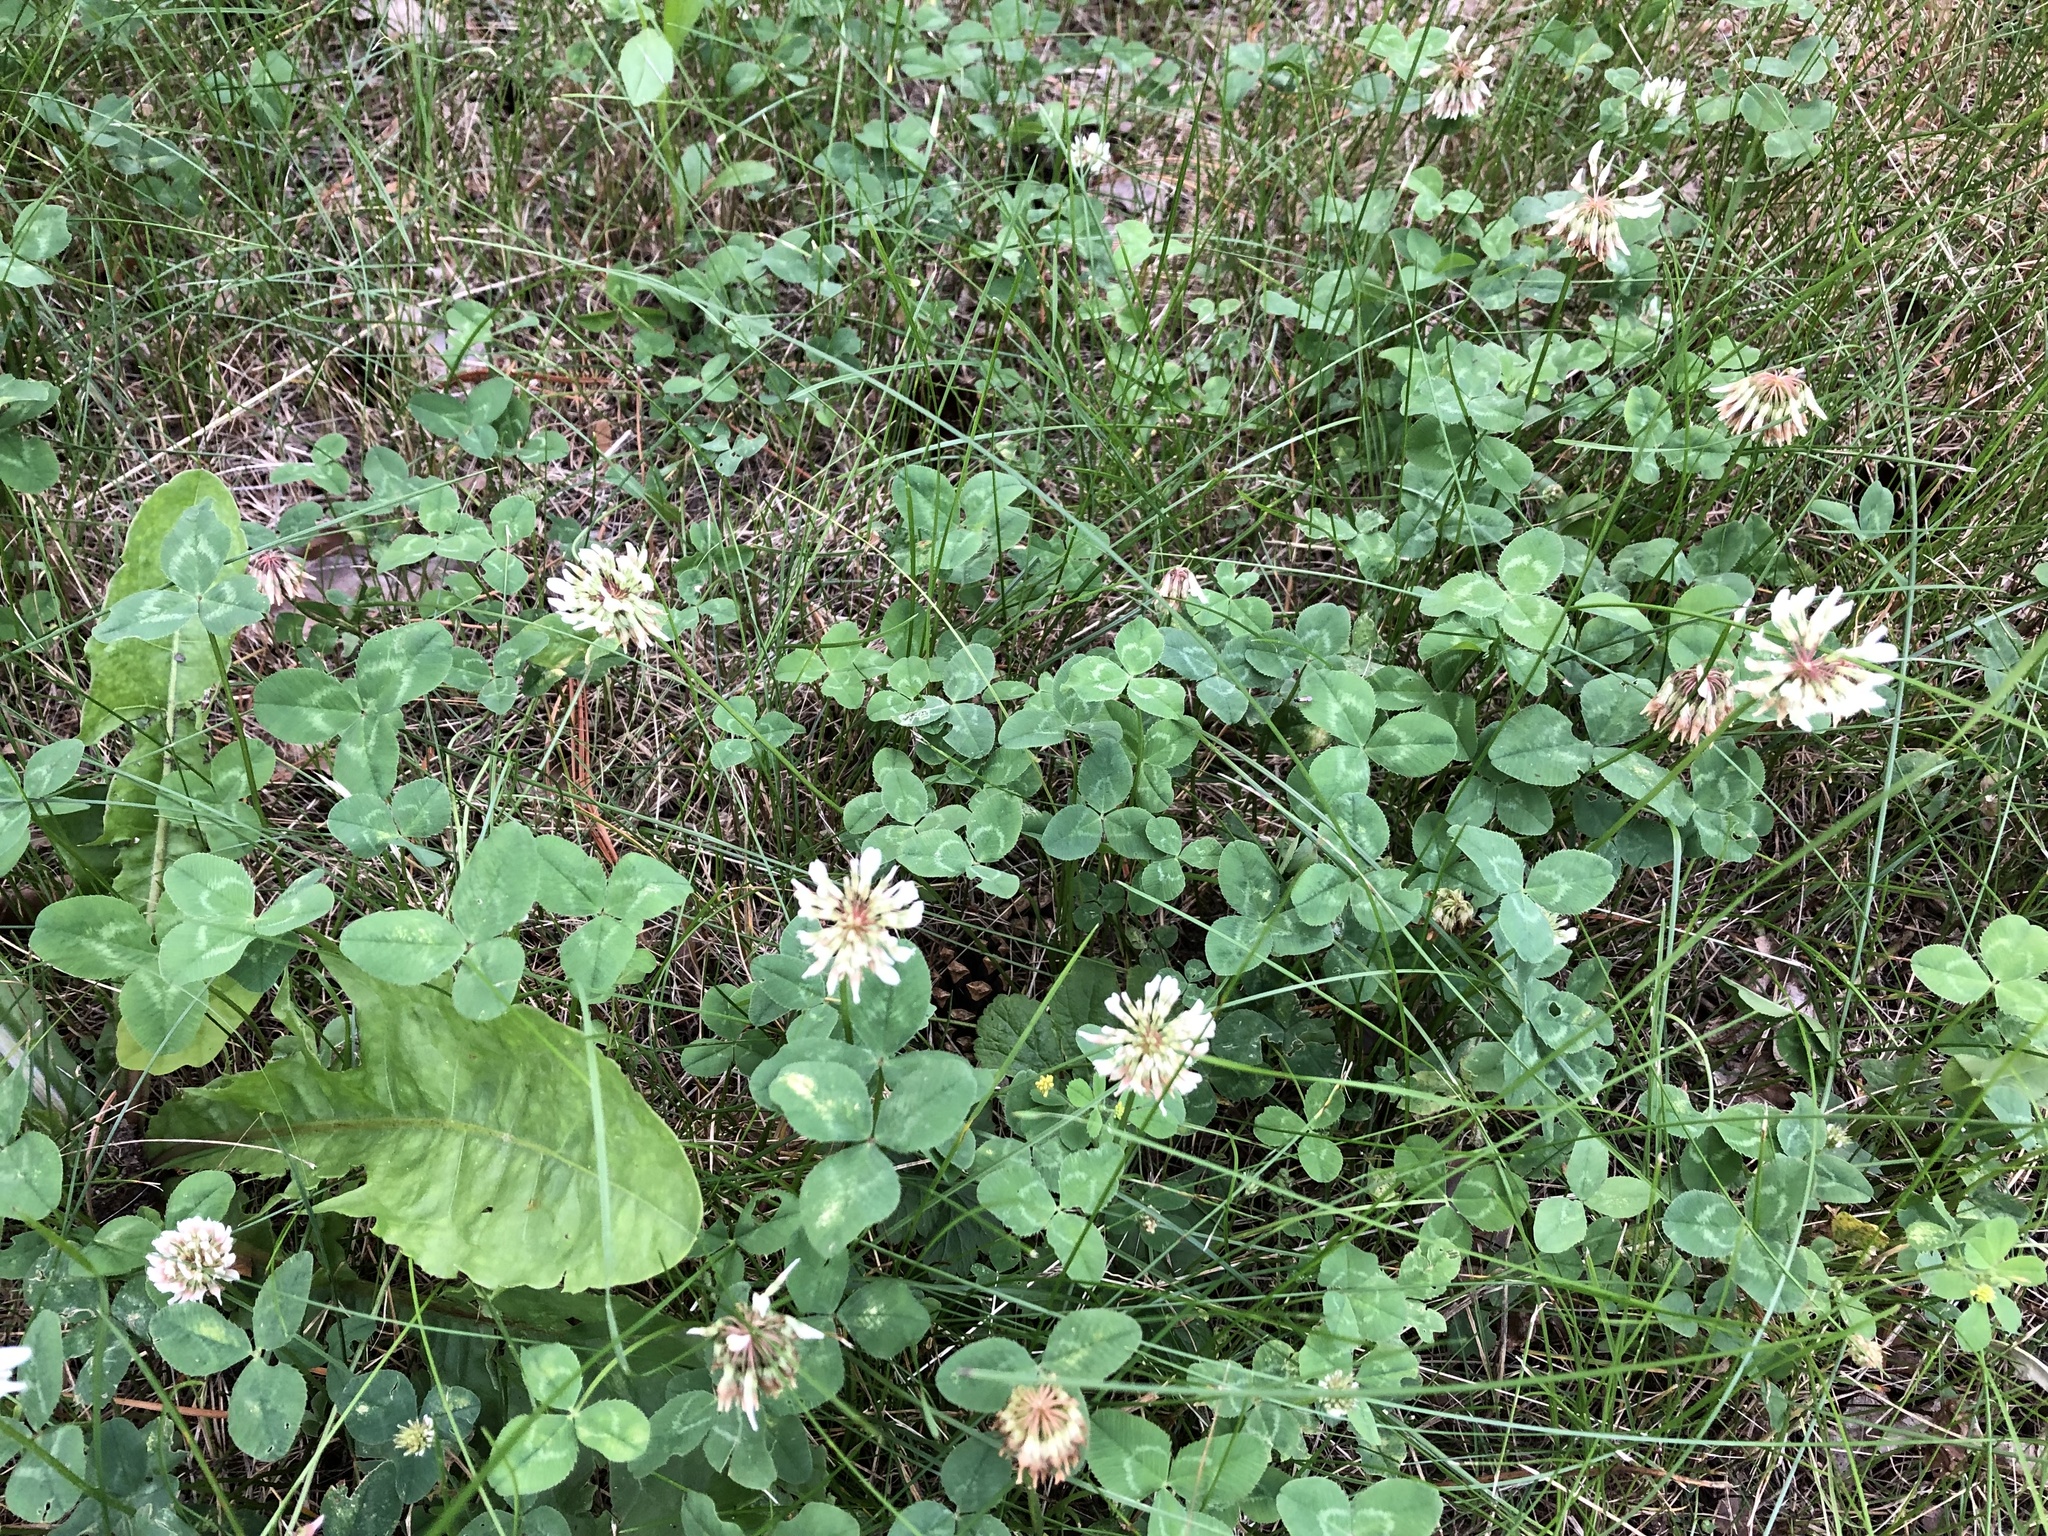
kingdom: Plantae
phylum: Tracheophyta
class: Magnoliopsida
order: Fabales
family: Fabaceae
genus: Trifolium
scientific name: Trifolium repens
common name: White clover
